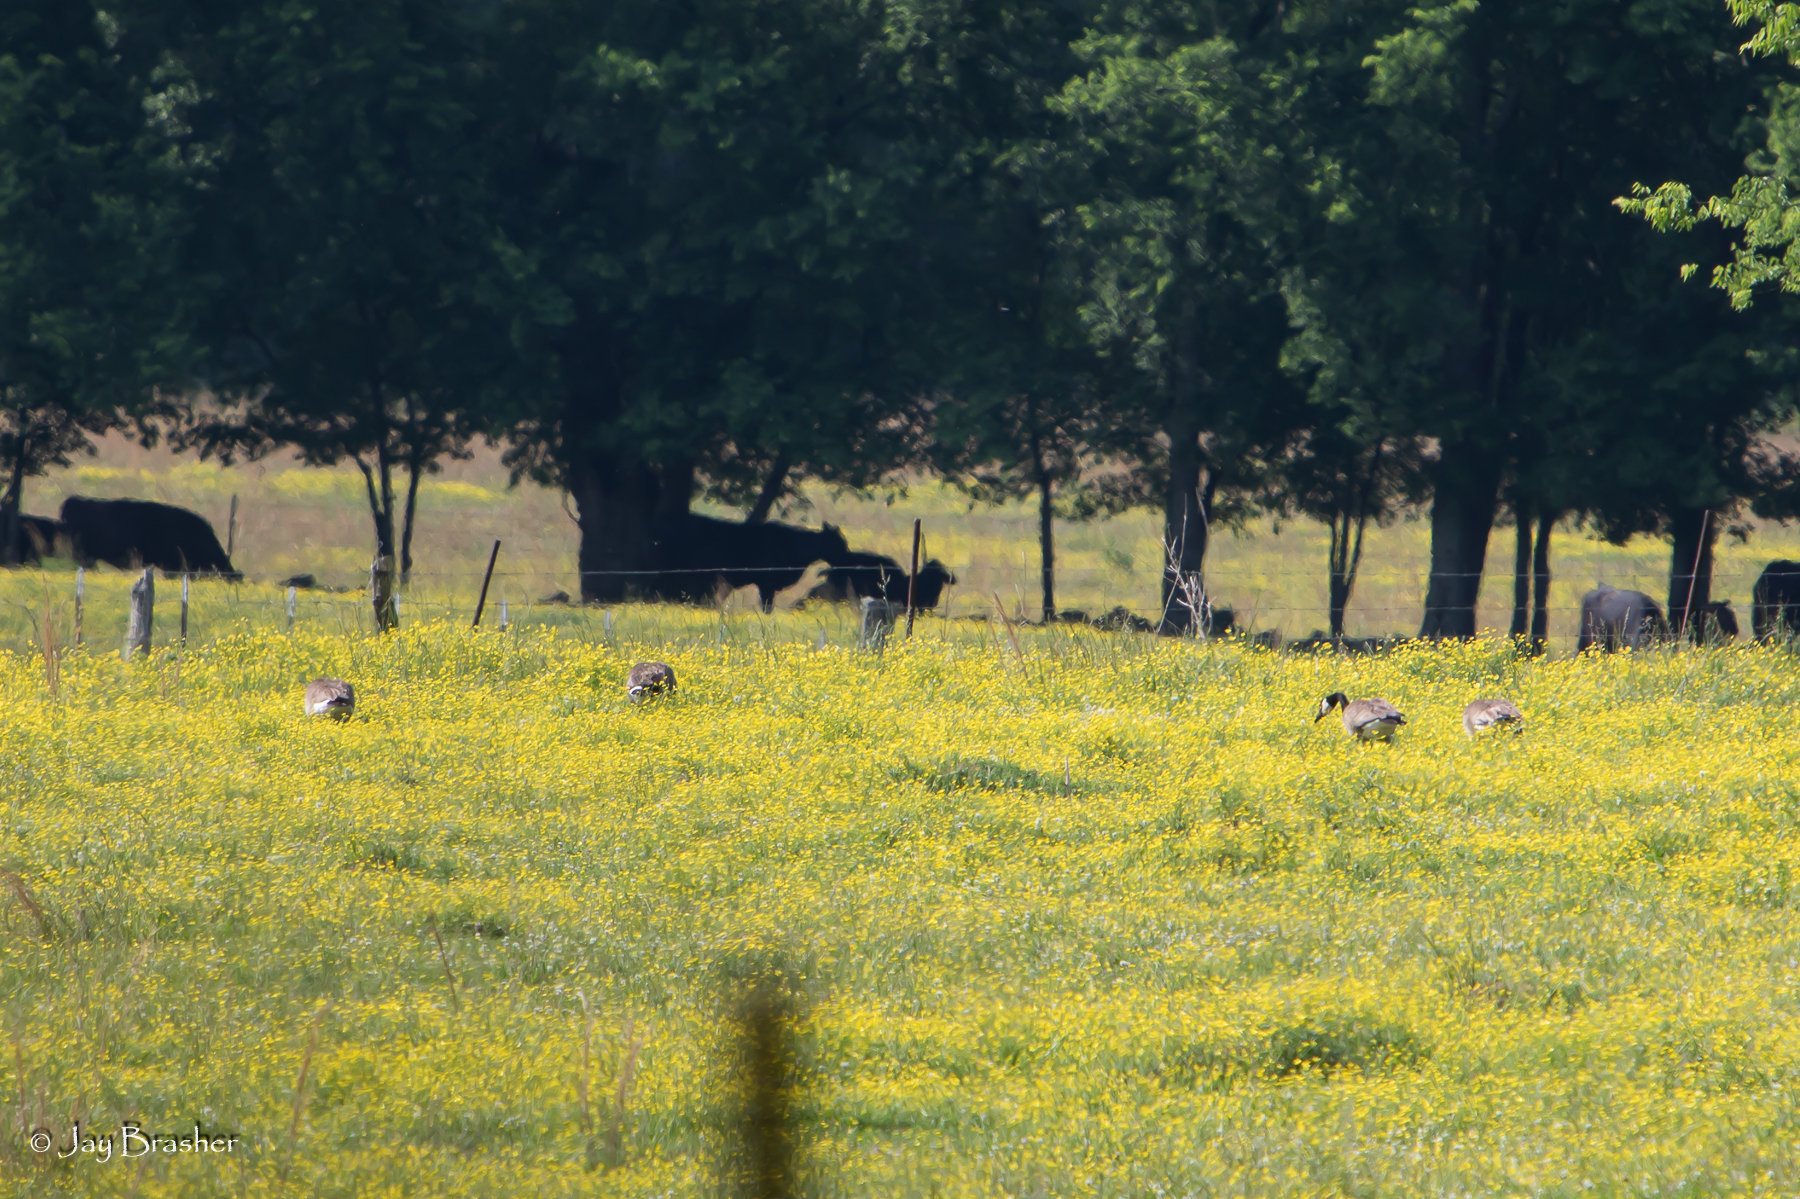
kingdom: Animalia
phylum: Chordata
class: Aves
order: Anseriformes
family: Anatidae
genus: Branta
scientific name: Branta canadensis
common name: Canada goose
